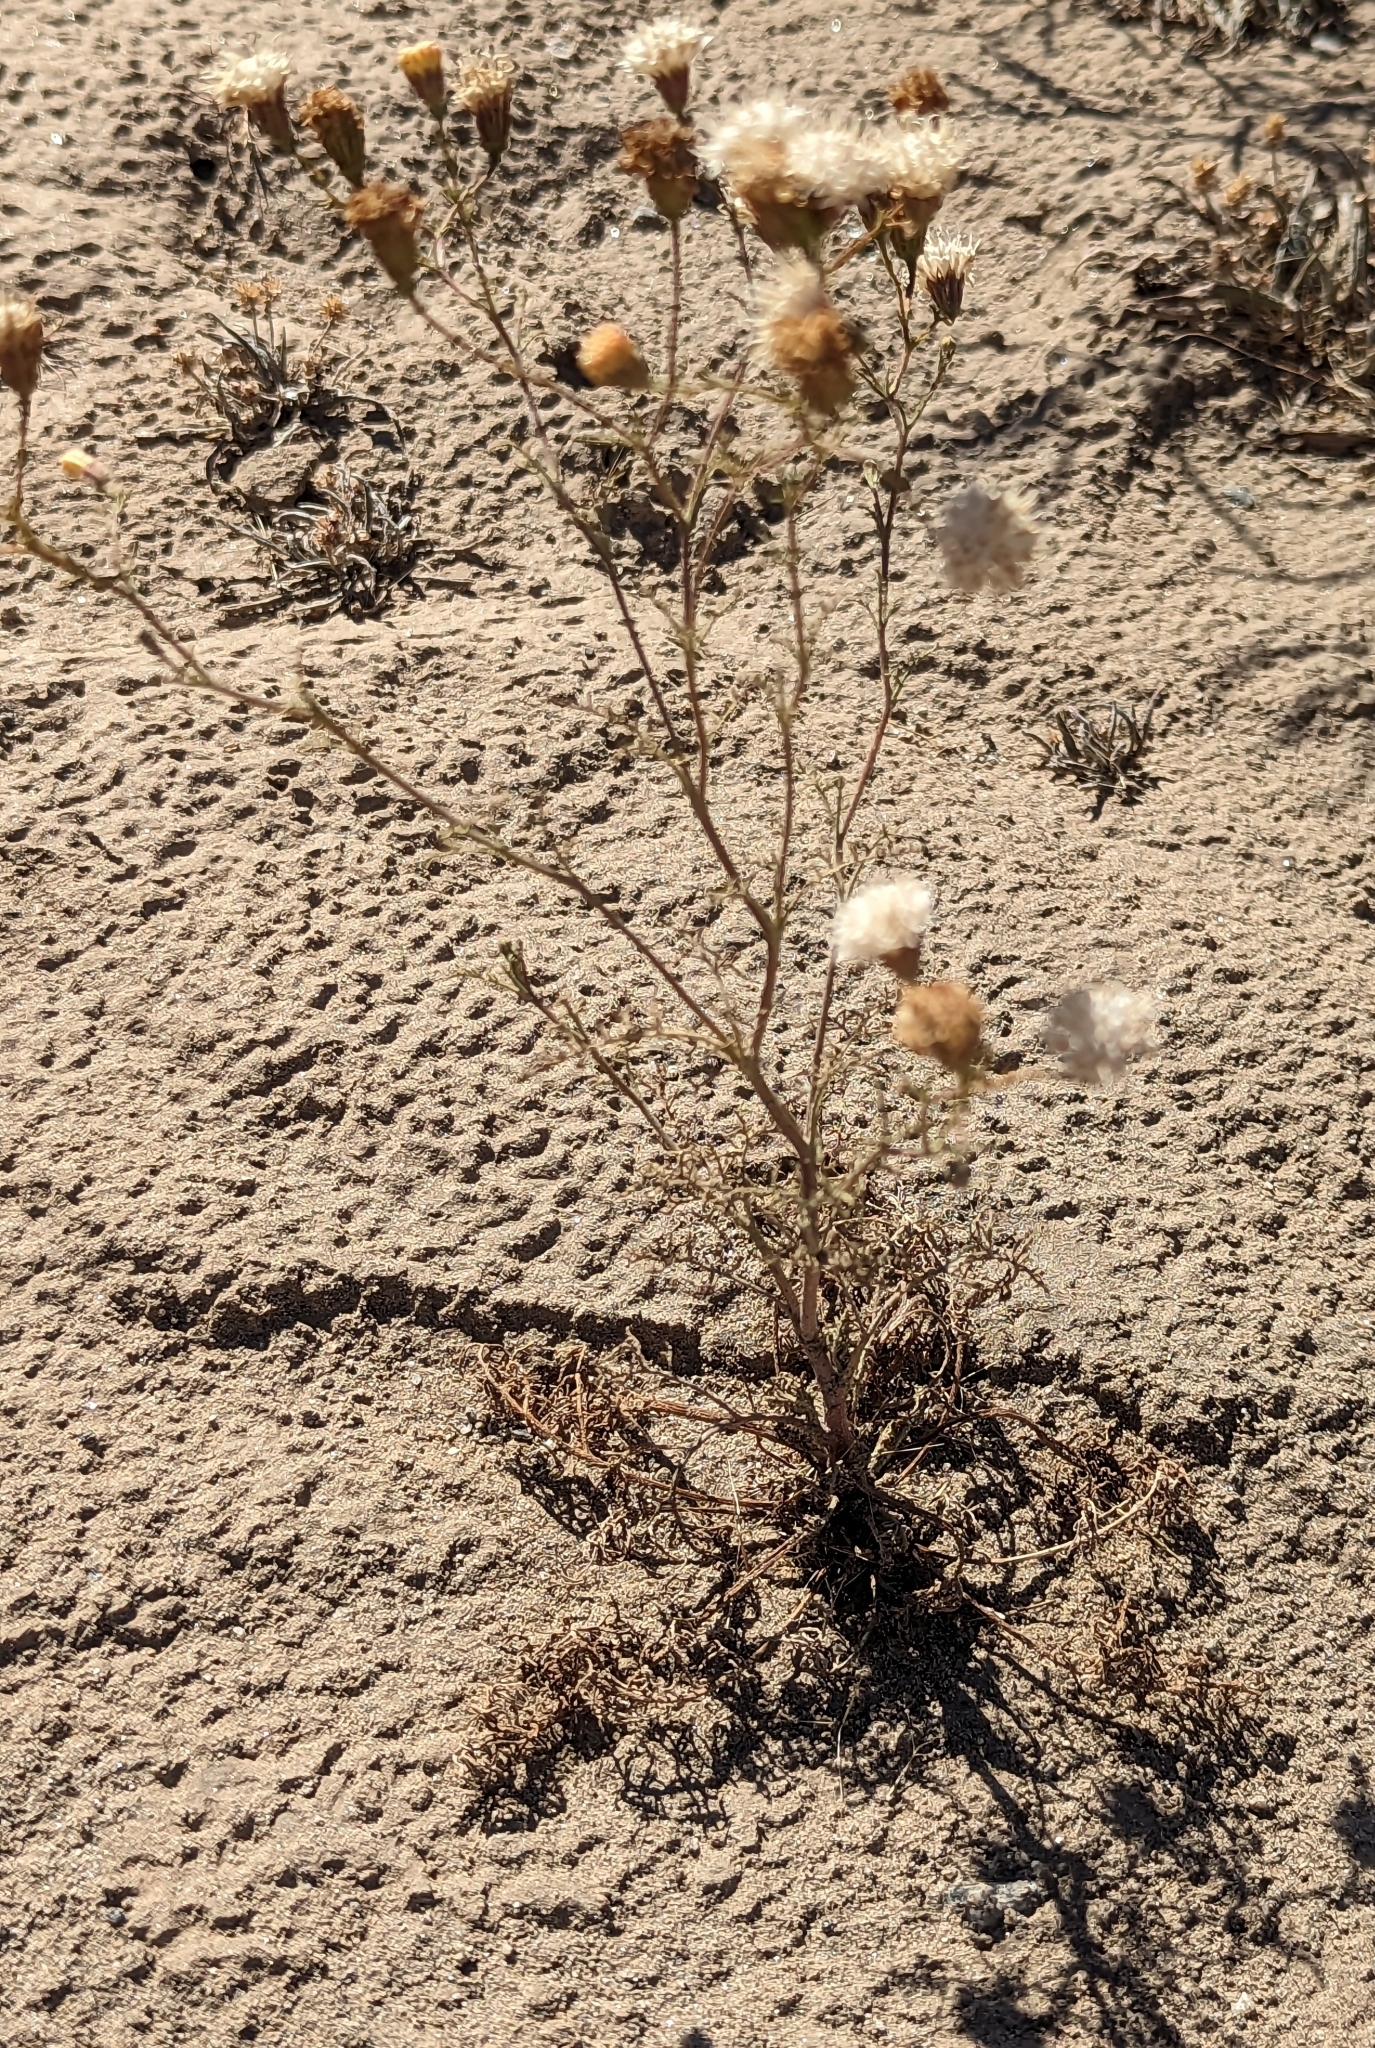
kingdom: Plantae
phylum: Tracheophyta
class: Magnoliopsida
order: Asterales
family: Asteraceae
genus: Chaenactis
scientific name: Chaenactis carphoclinia
